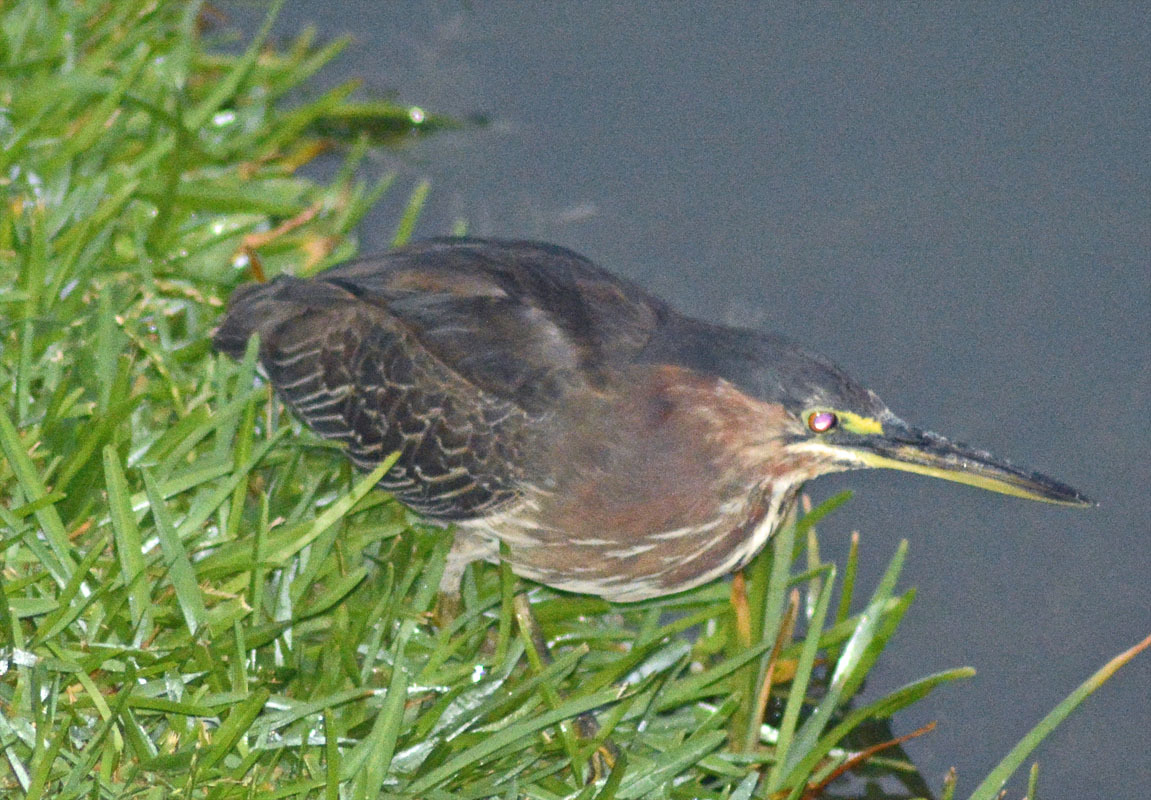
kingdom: Animalia
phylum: Chordata
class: Aves
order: Pelecaniformes
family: Ardeidae
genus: Butorides
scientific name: Butorides virescens
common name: Green heron
